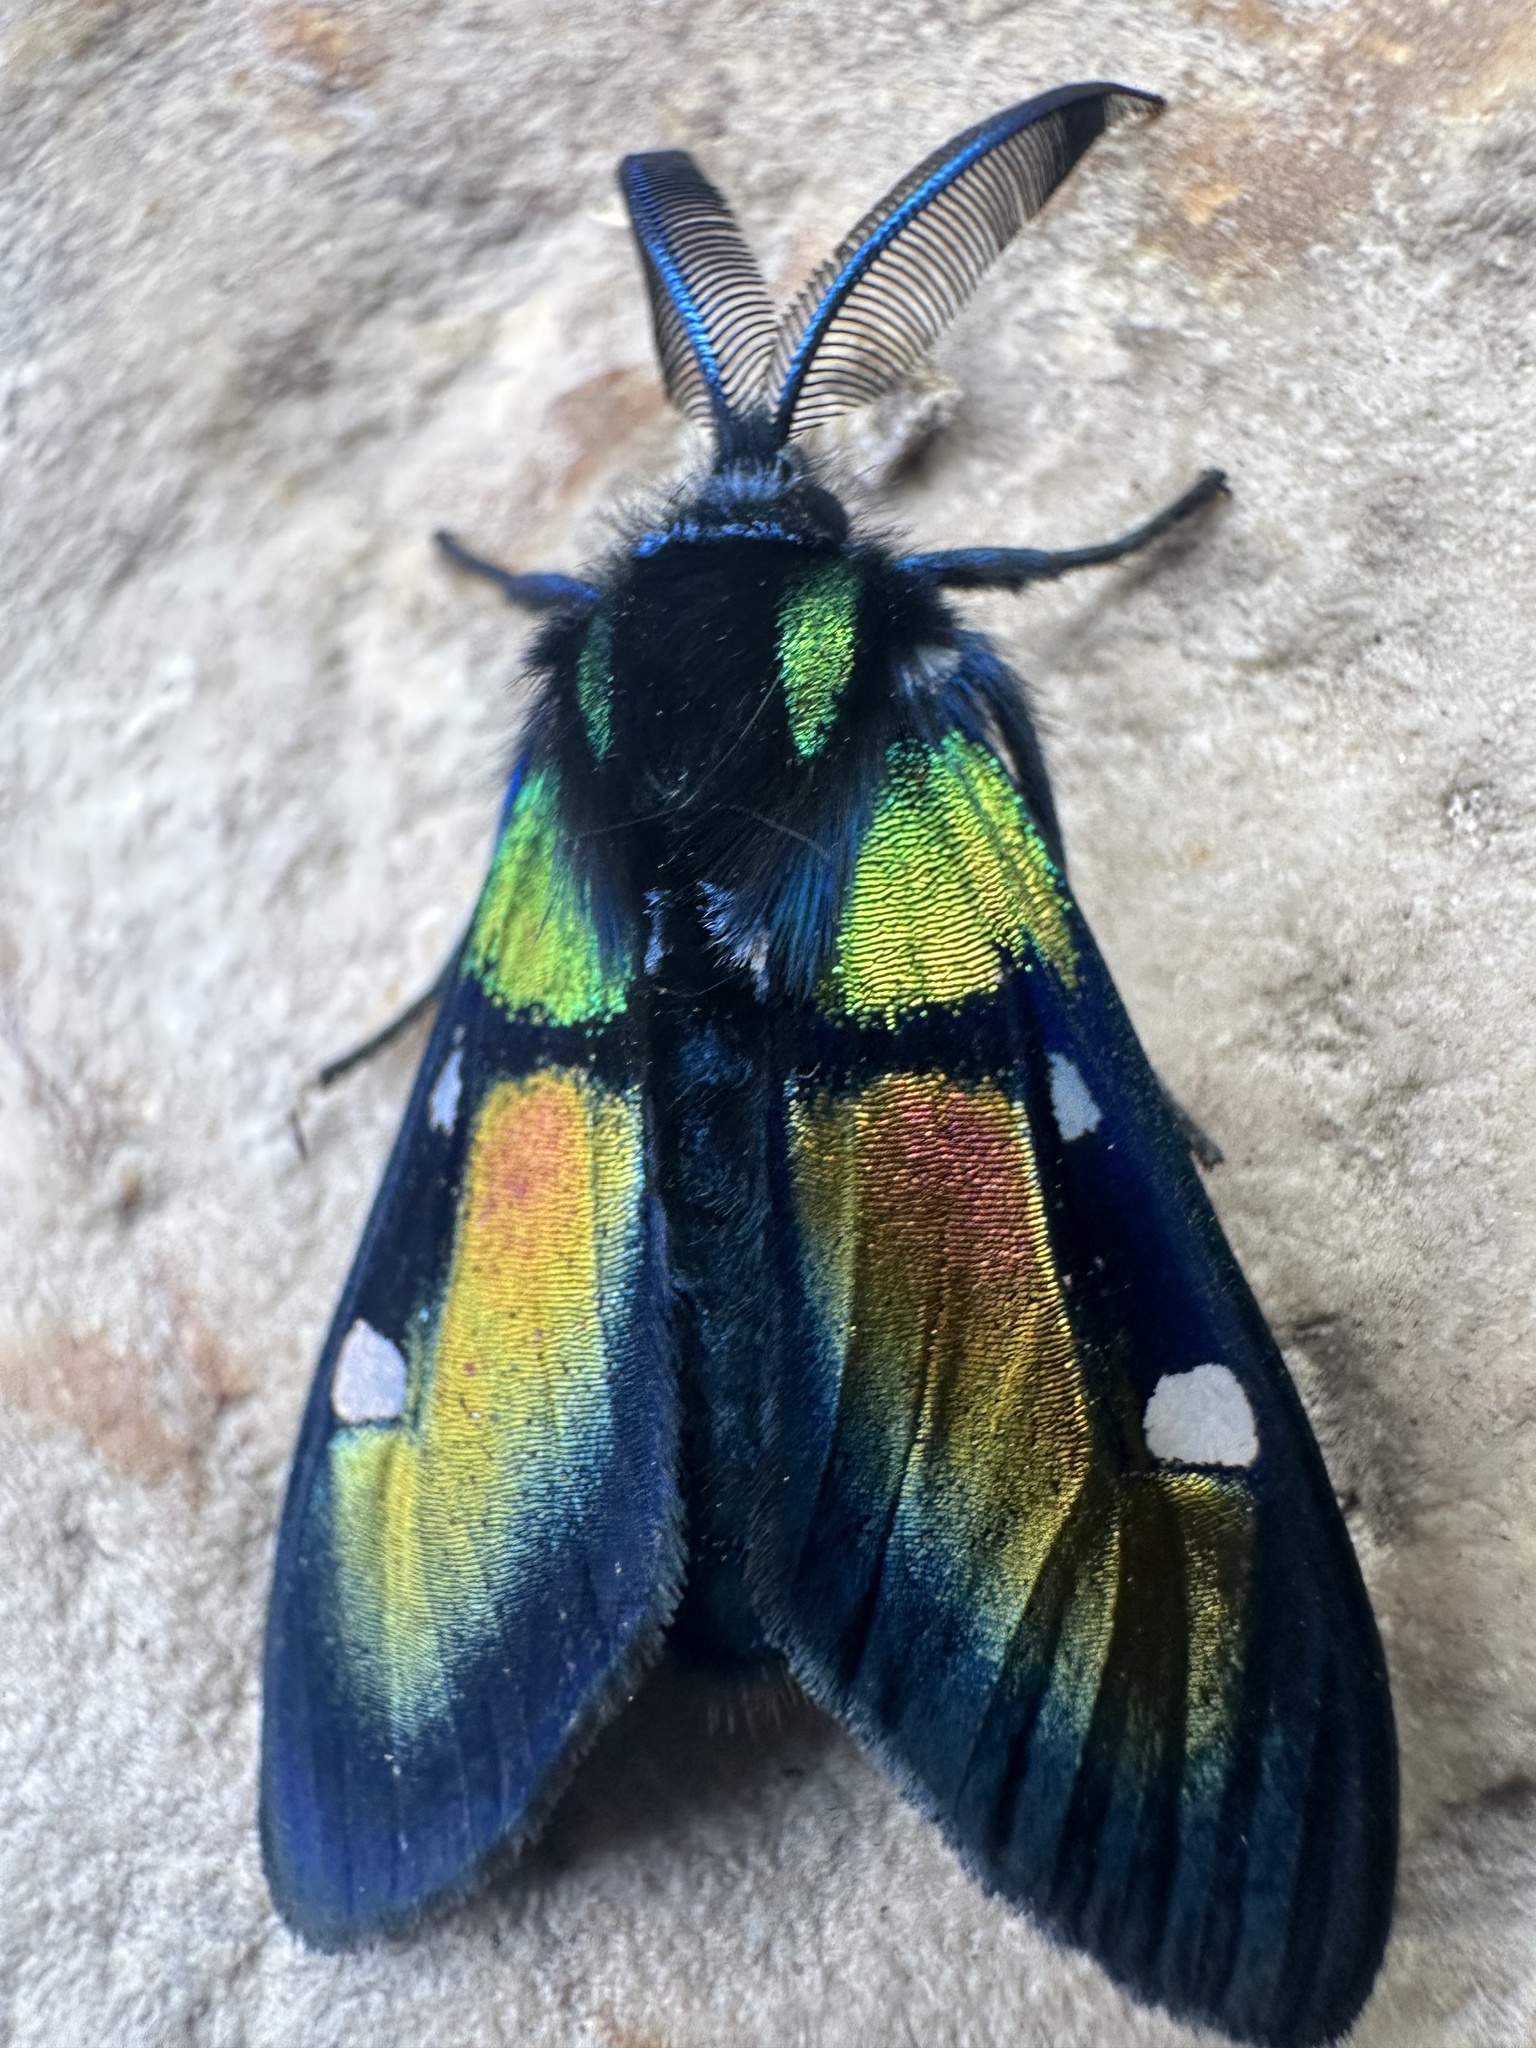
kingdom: Animalia
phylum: Arthropoda
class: Insecta
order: Lepidoptera
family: Erebidae
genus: Chrysocale
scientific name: Chrysocale ignita
